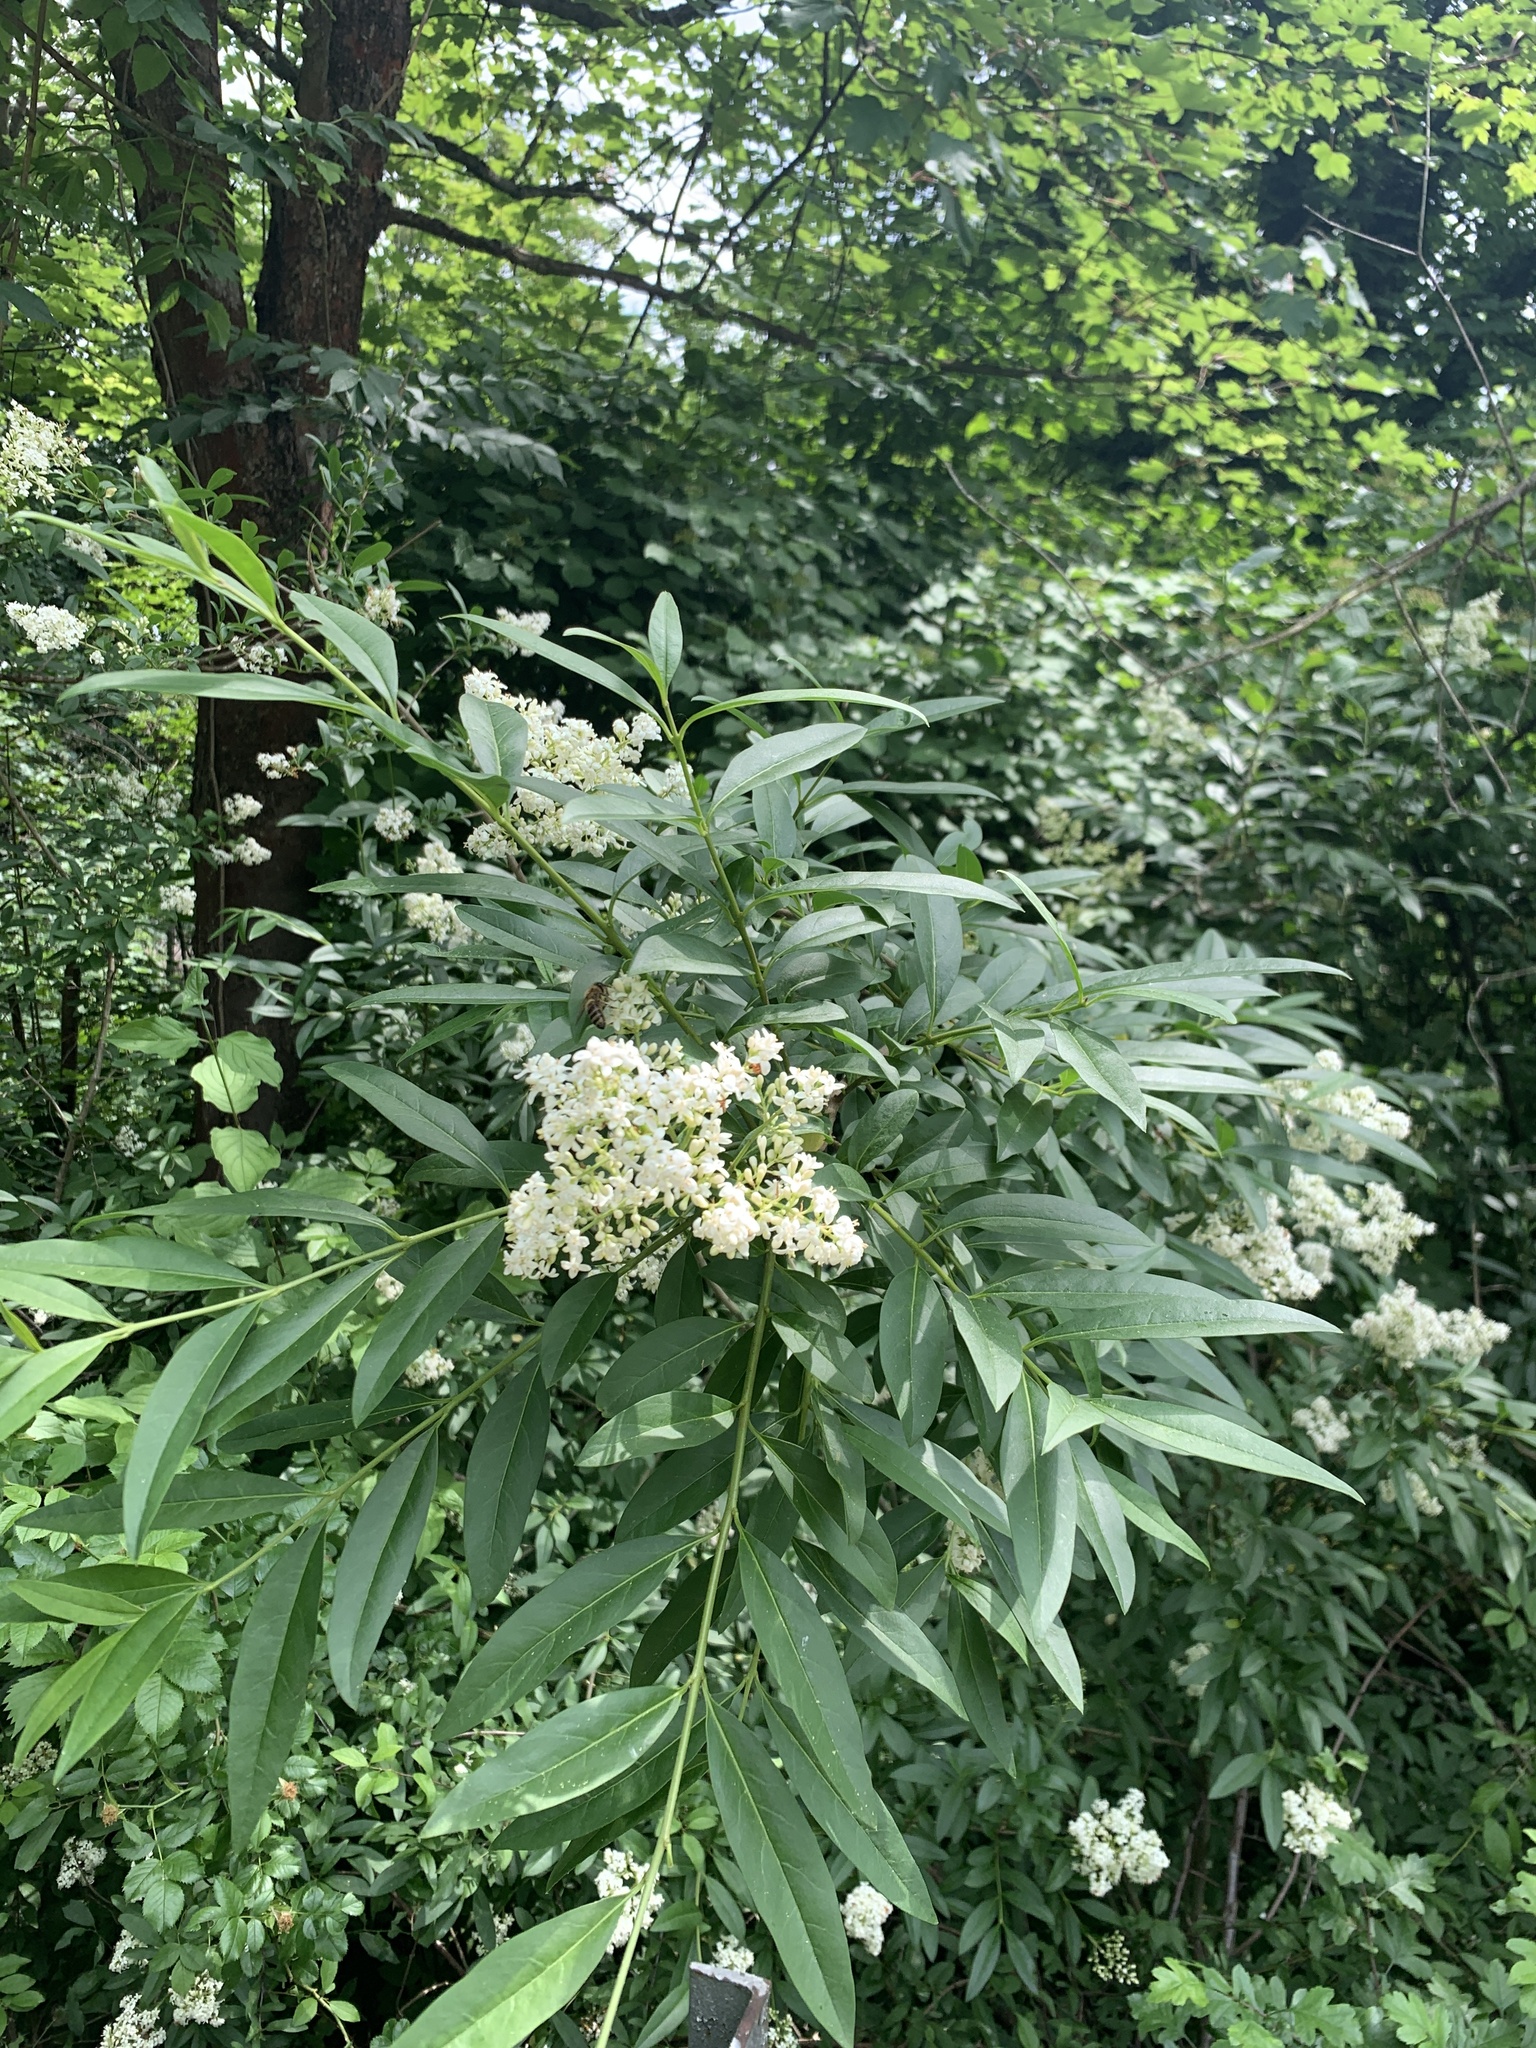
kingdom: Plantae
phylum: Tracheophyta
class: Magnoliopsida
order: Lamiales
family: Oleaceae
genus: Ligustrum
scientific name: Ligustrum vulgare
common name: Wild privet
